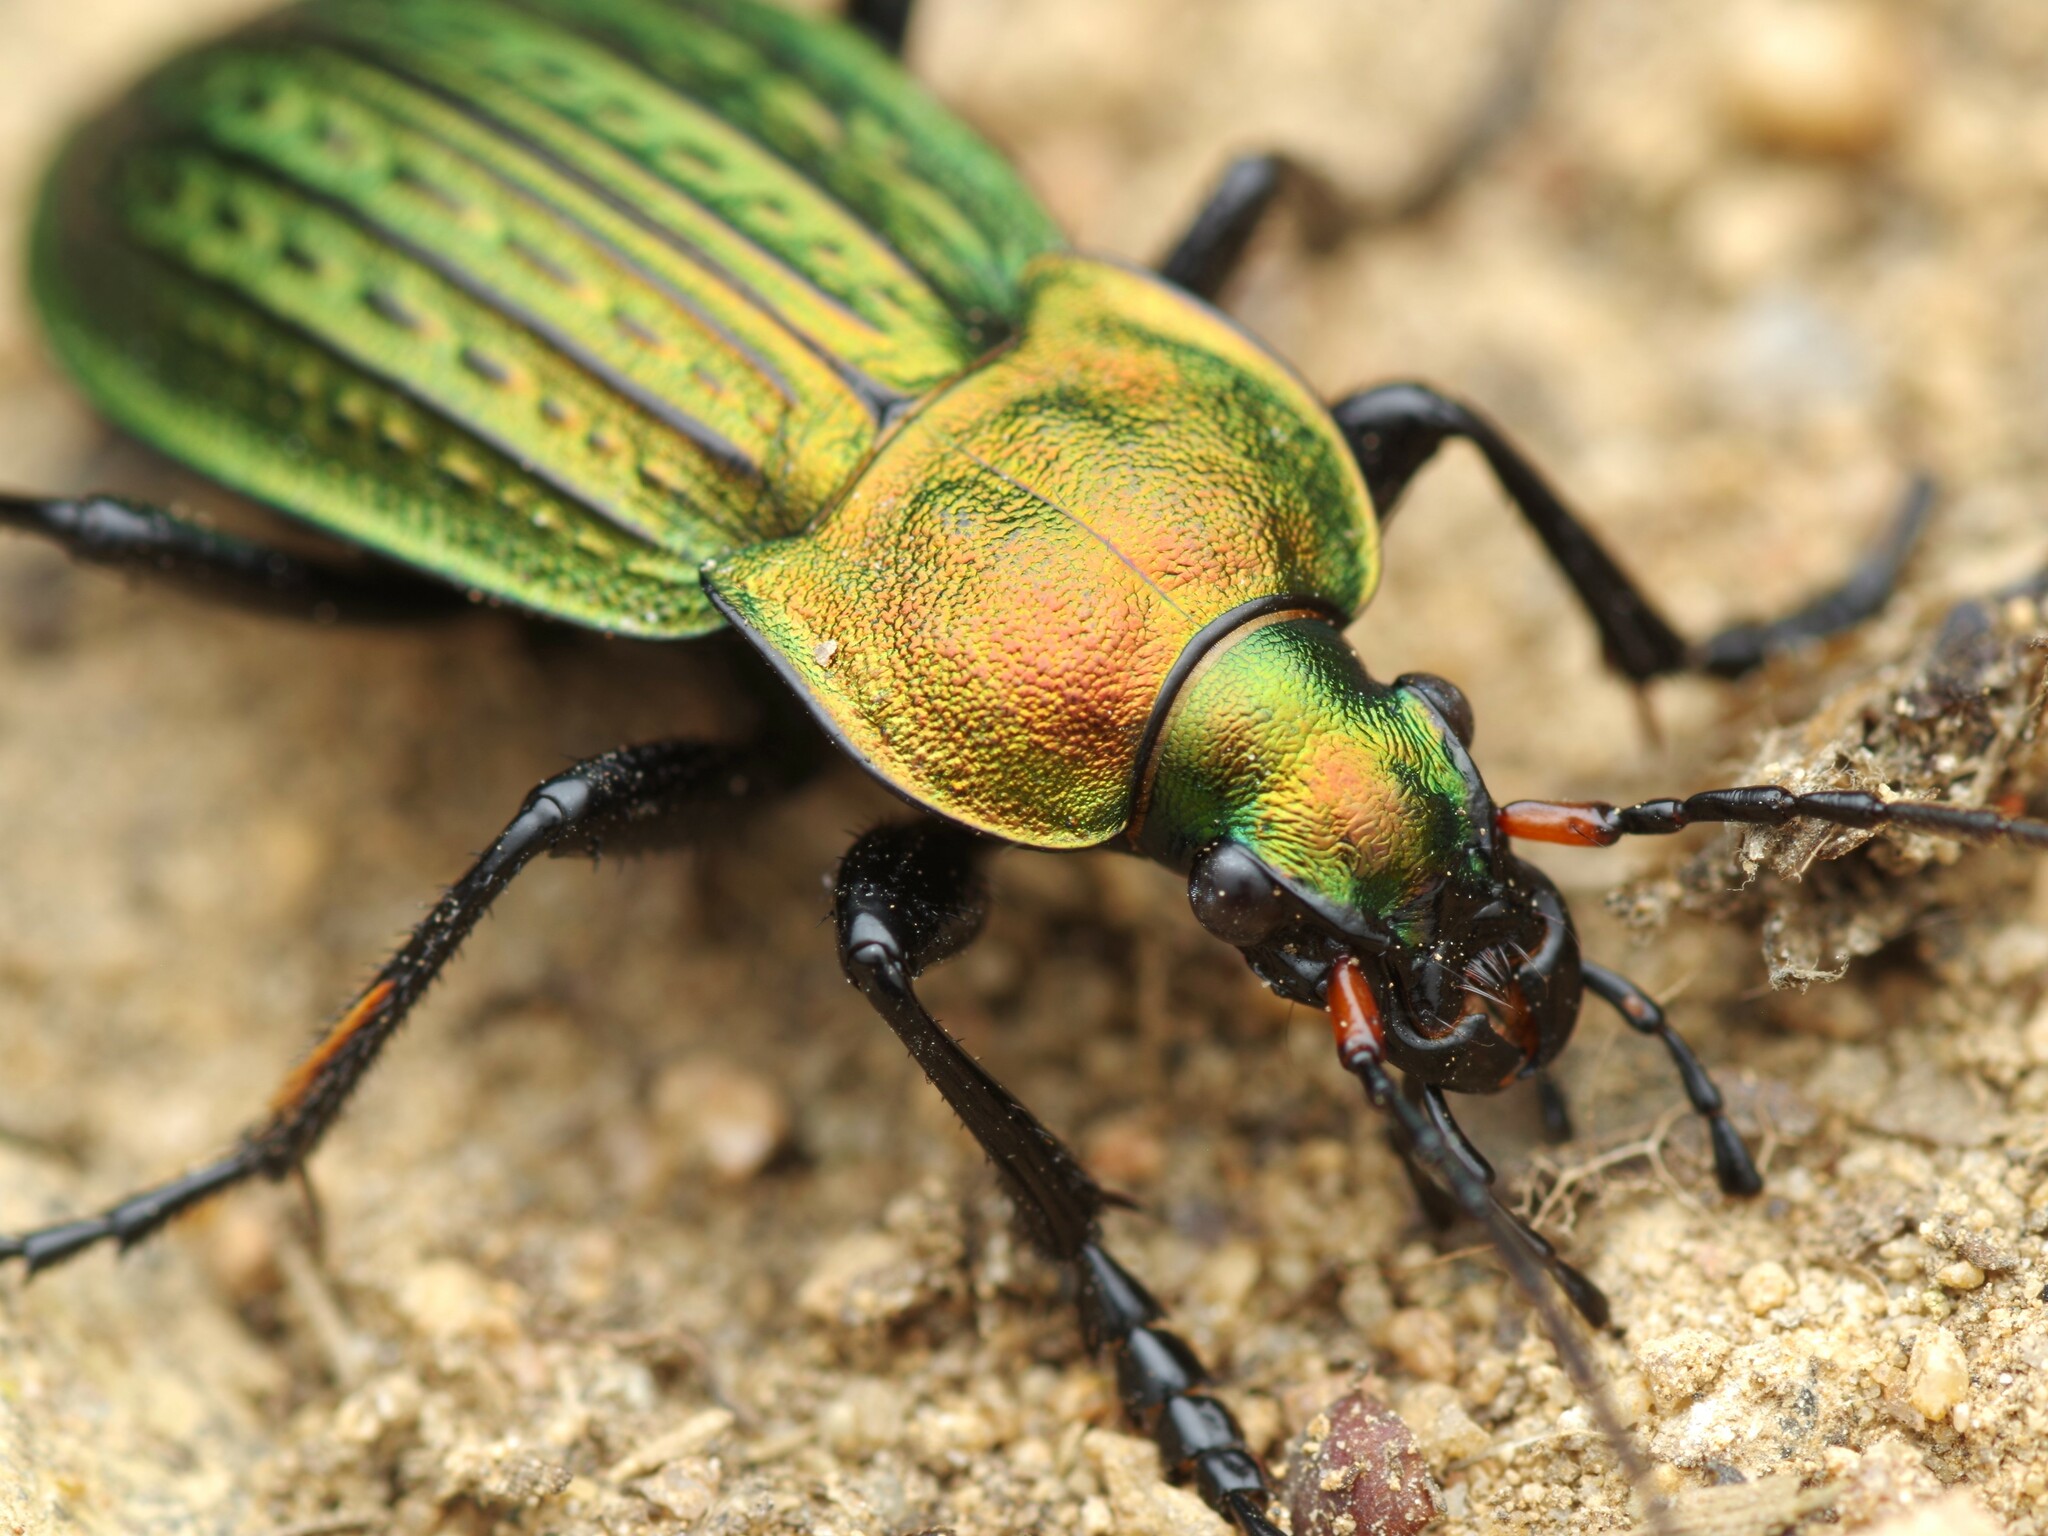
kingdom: Animalia
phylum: Arthropoda
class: Insecta
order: Coleoptera
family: Carabidae
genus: Carabus
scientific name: Carabus cancellatus
